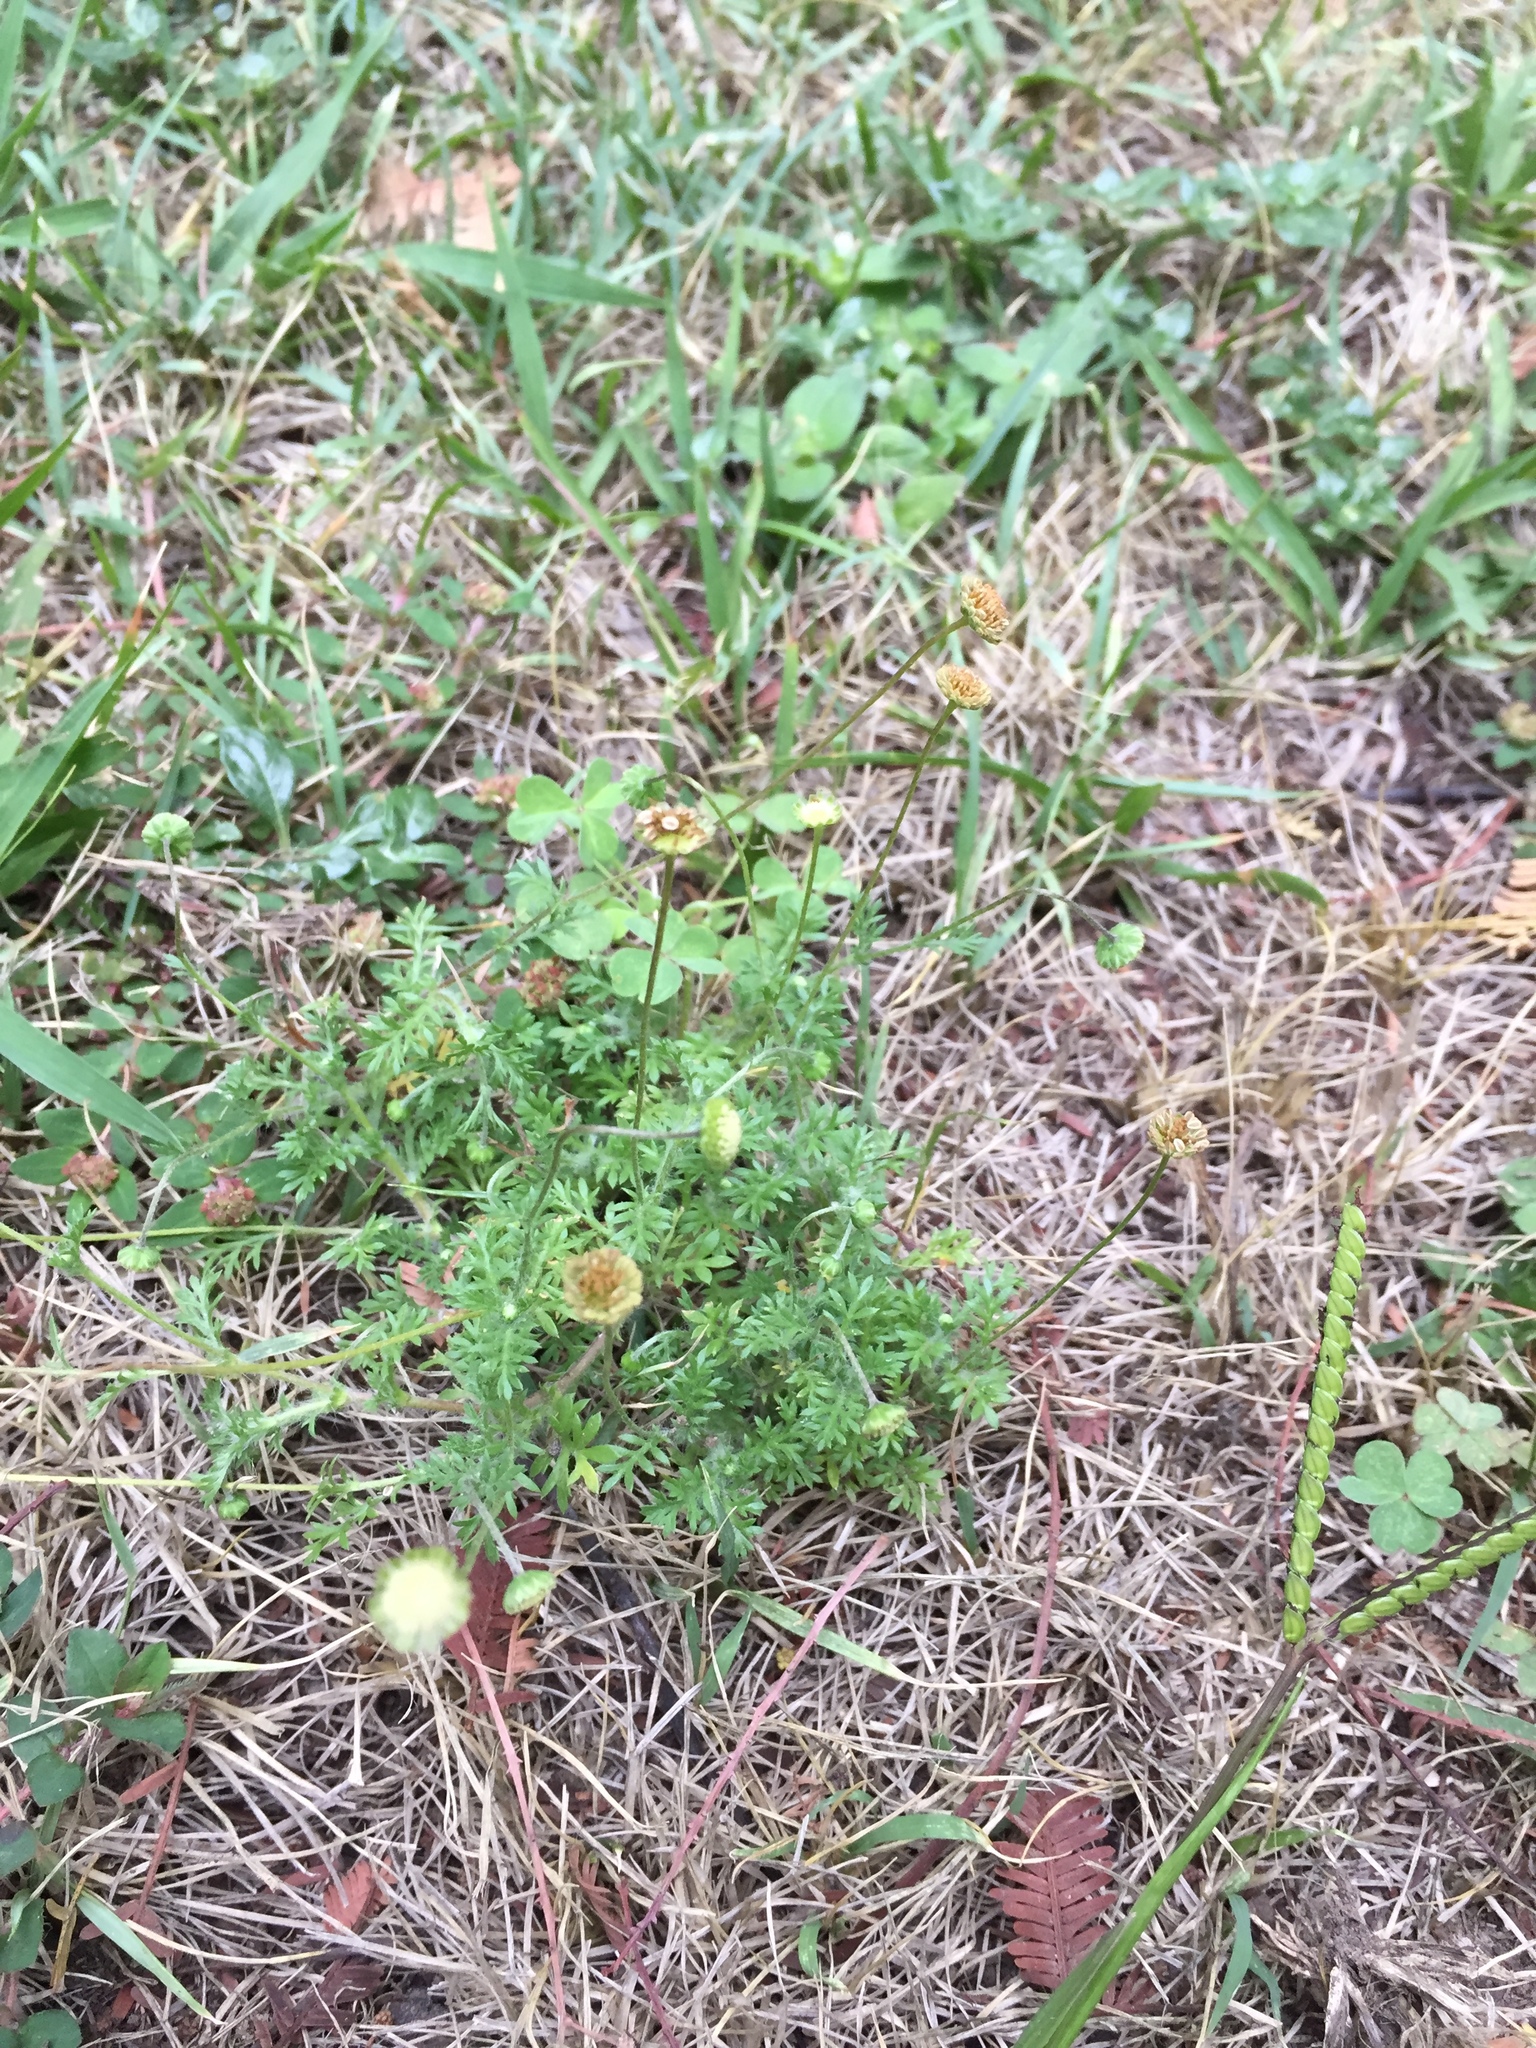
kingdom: Plantae
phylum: Tracheophyta
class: Magnoliopsida
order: Asterales
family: Asteraceae
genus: Cotula
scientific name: Cotula australis
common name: Australian waterbuttons
